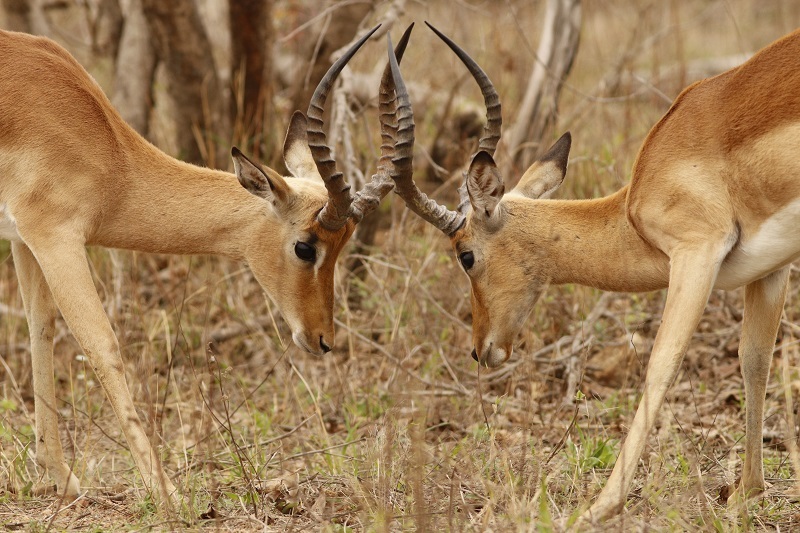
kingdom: Animalia
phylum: Chordata
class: Mammalia
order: Artiodactyla
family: Bovidae
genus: Aepyceros
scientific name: Aepyceros melampus
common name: Impala
